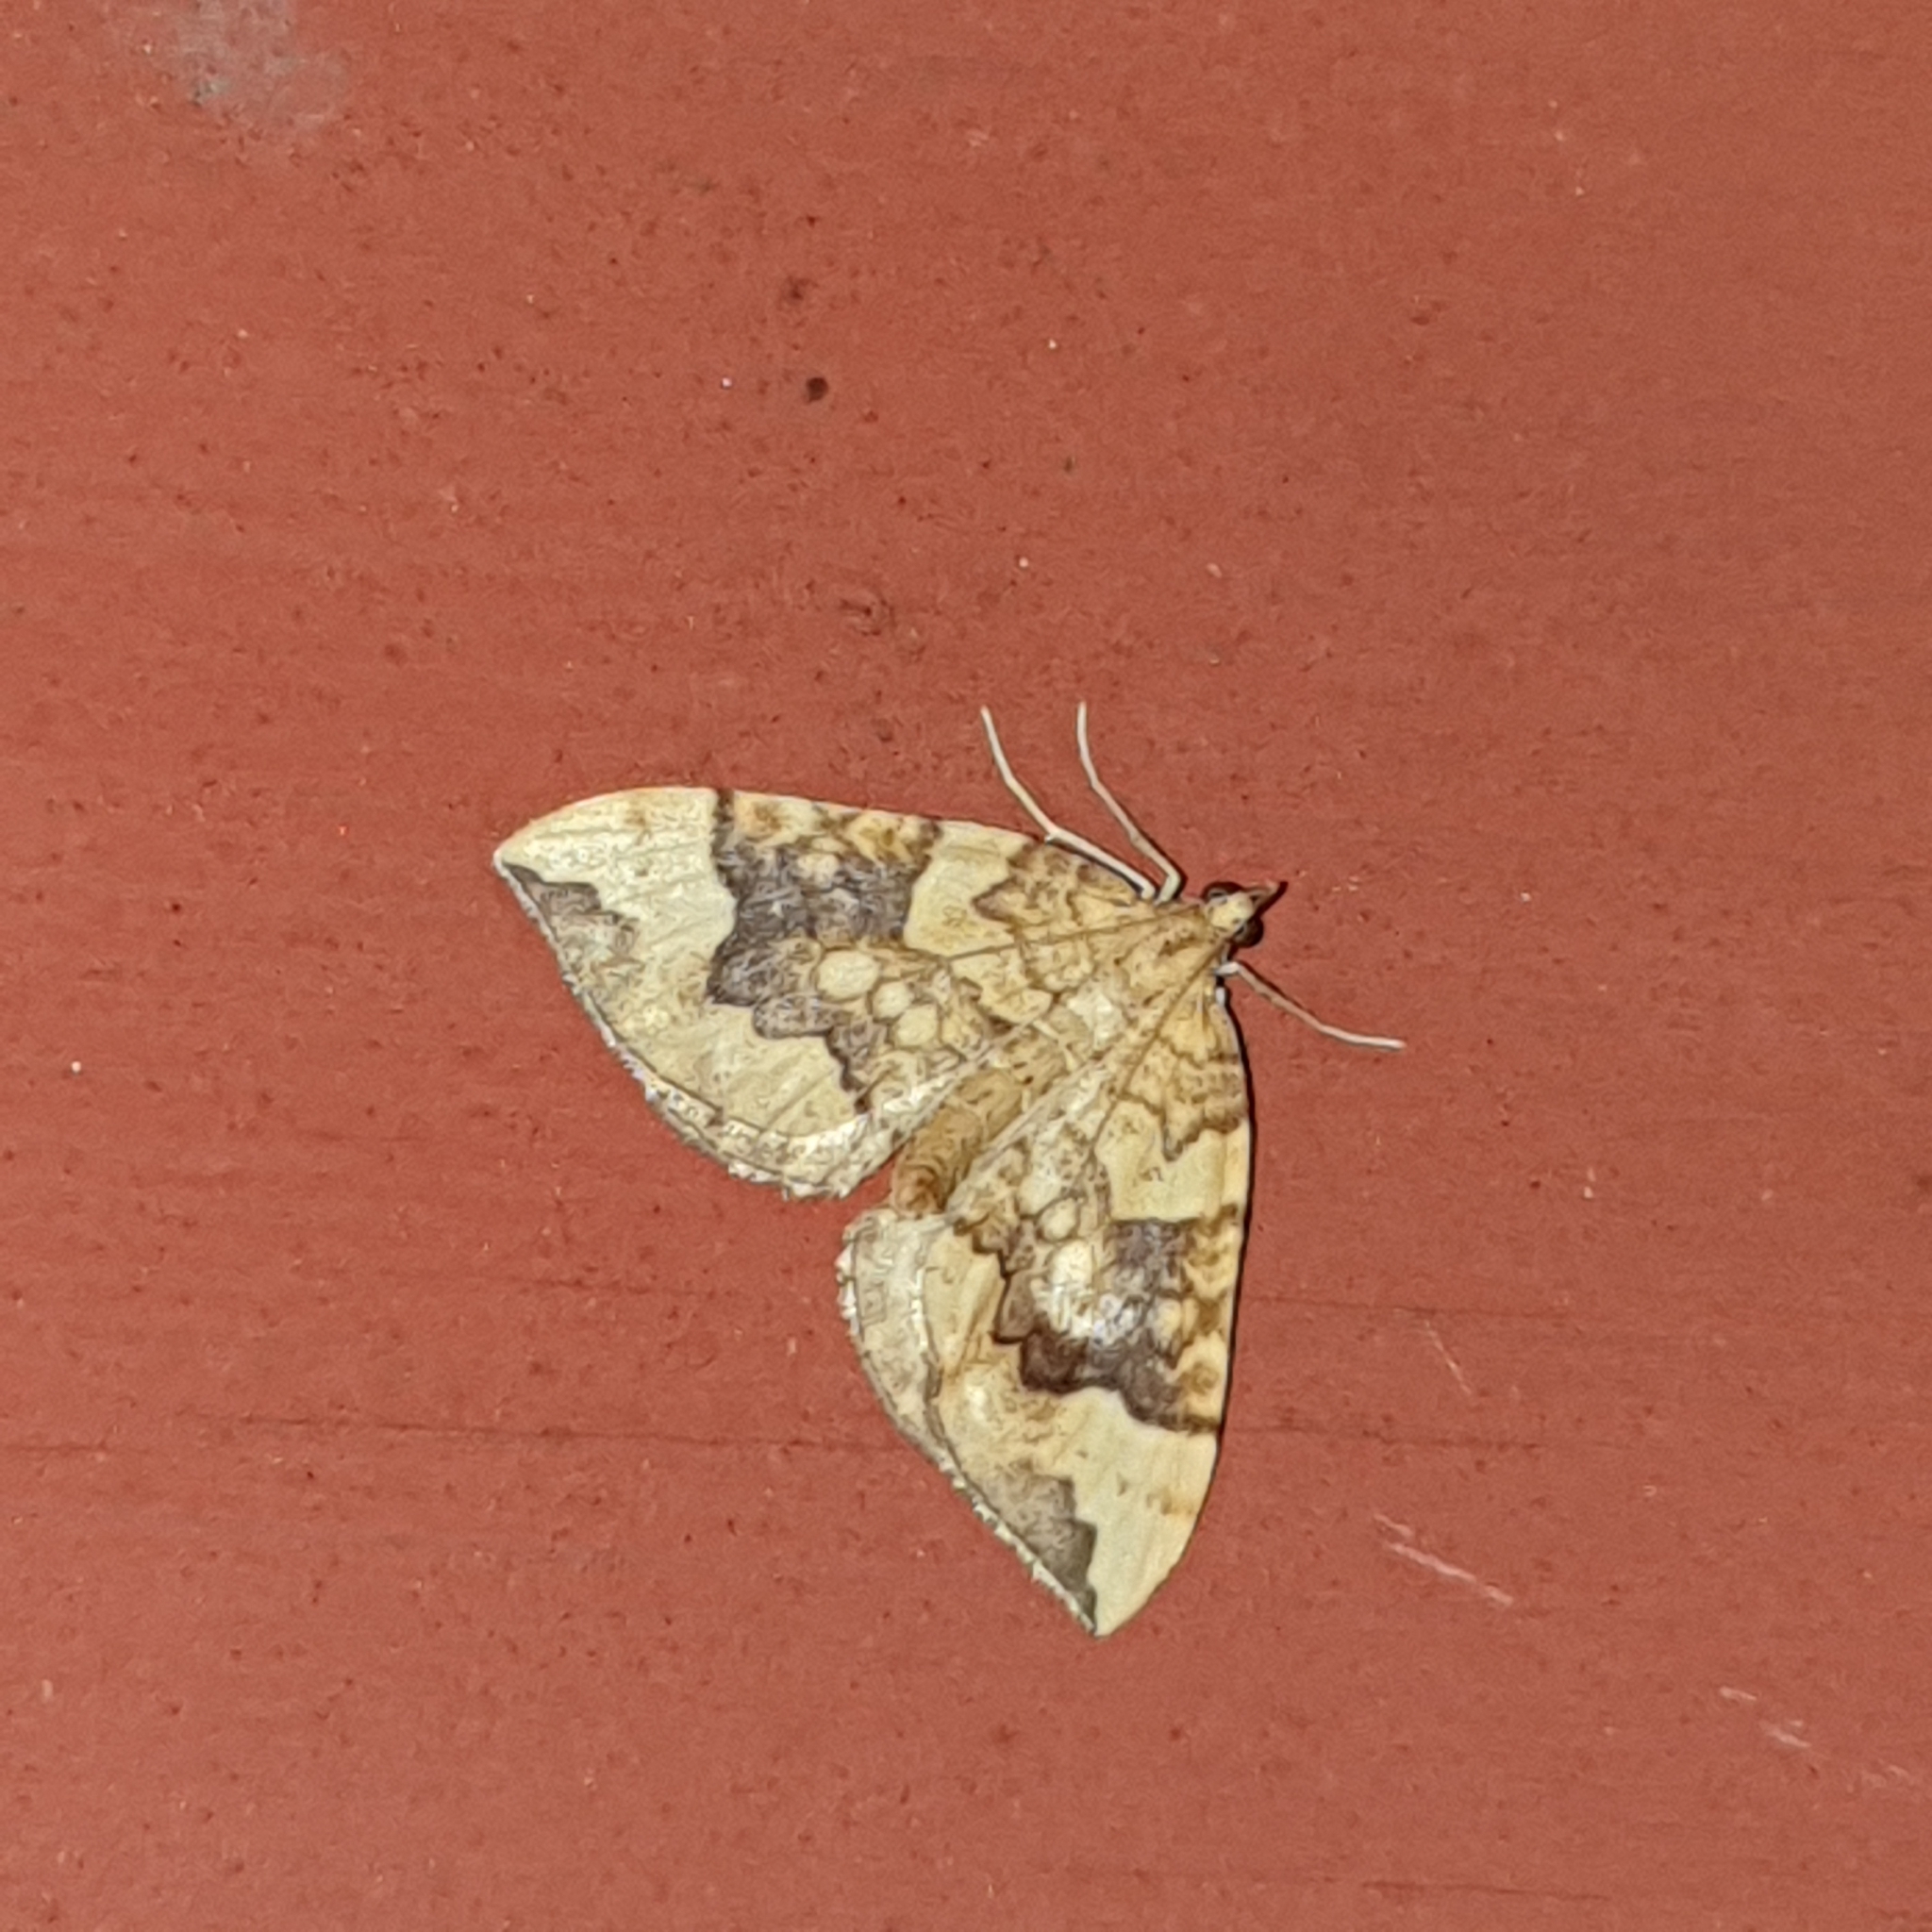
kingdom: Animalia
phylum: Arthropoda
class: Insecta
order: Lepidoptera
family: Geometridae
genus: Eulithis
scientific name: Eulithis populata
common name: Northern spinach
